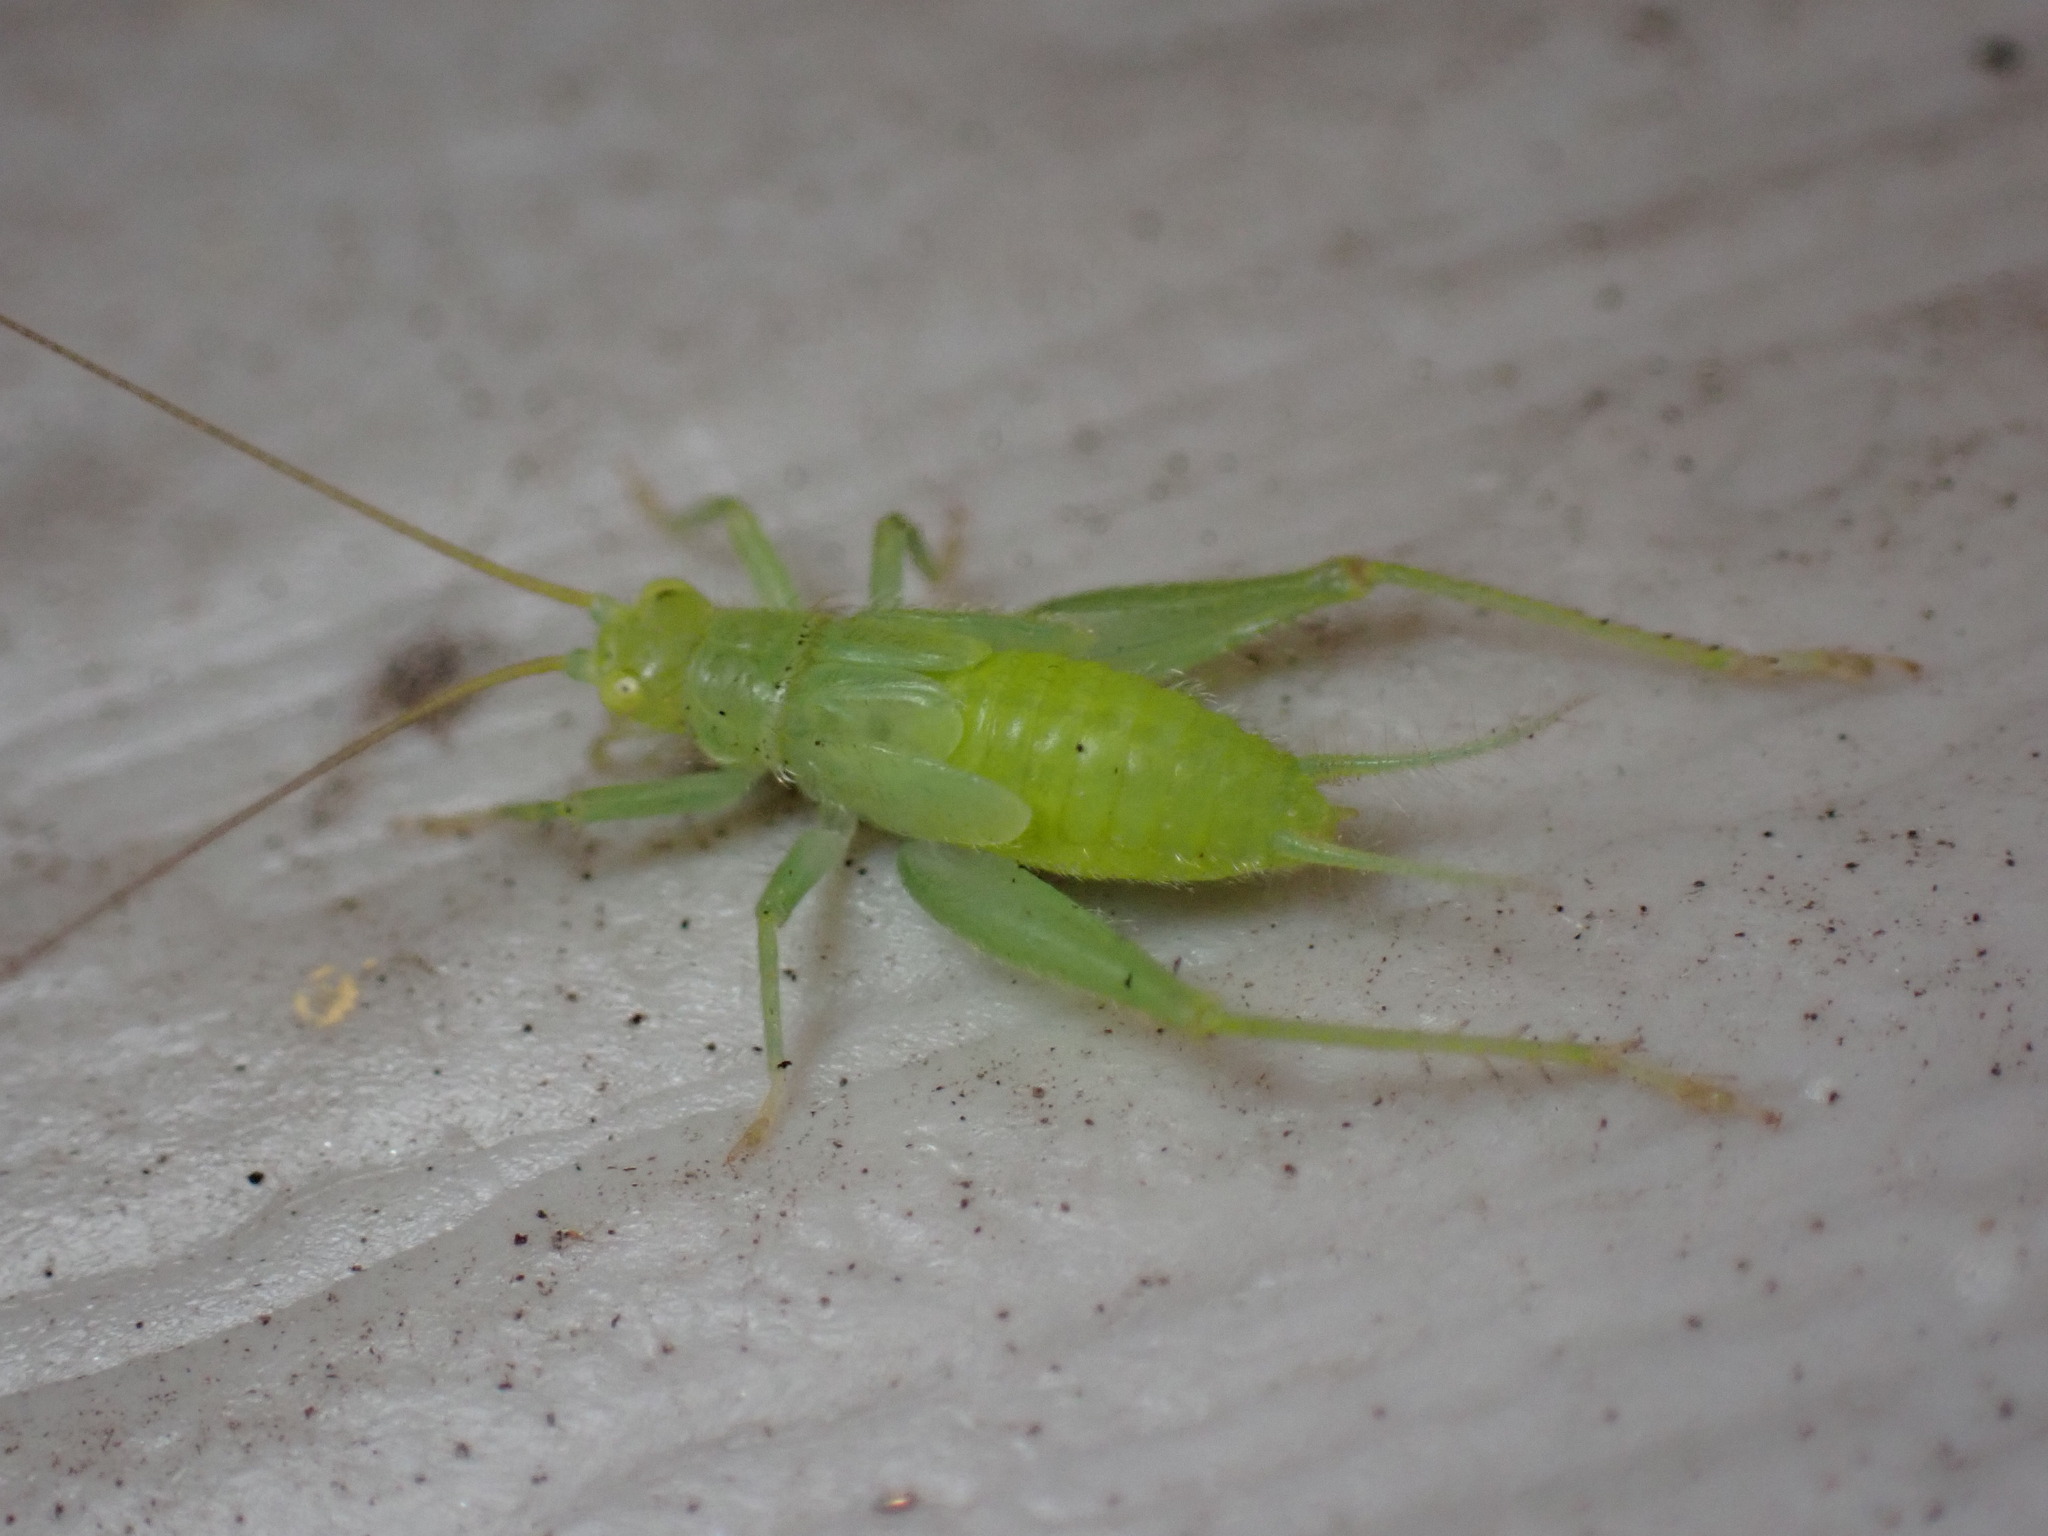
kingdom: Animalia
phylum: Arthropoda
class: Insecta
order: Orthoptera
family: Trigonidiidae
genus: Cyrtoxipha
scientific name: Cyrtoxipha columbiana
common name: Columbian trig
